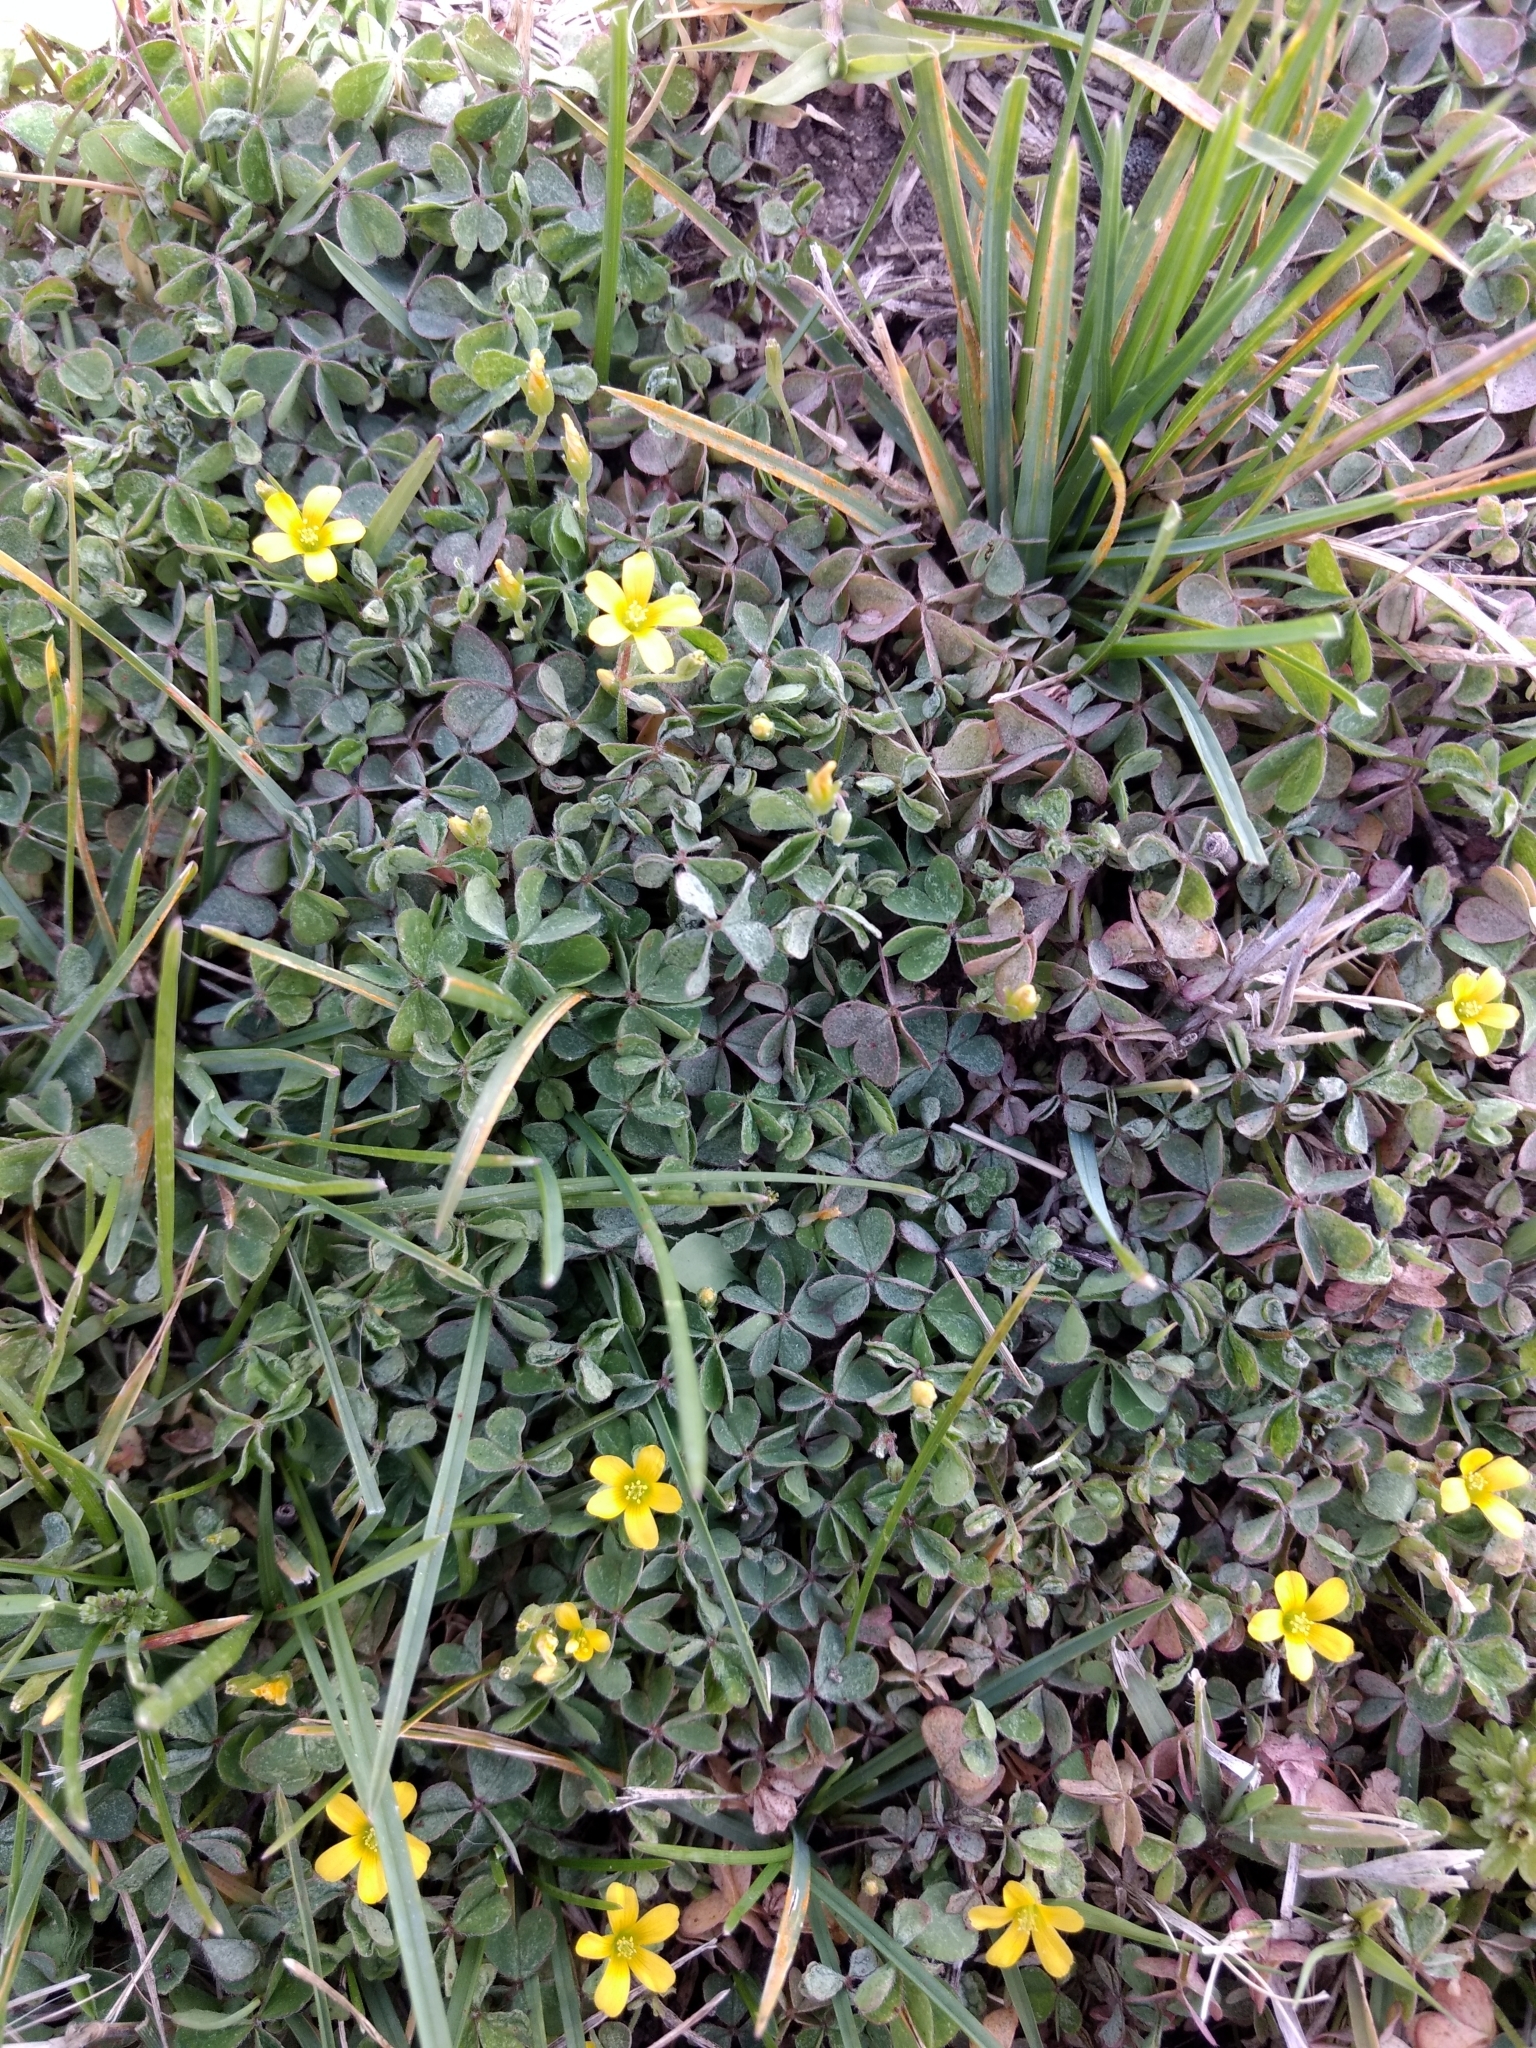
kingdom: Plantae
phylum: Tracheophyta
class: Magnoliopsida
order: Oxalidales
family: Oxalidaceae
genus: Oxalis
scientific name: Oxalis corniculata
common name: Procumbent yellow-sorrel
